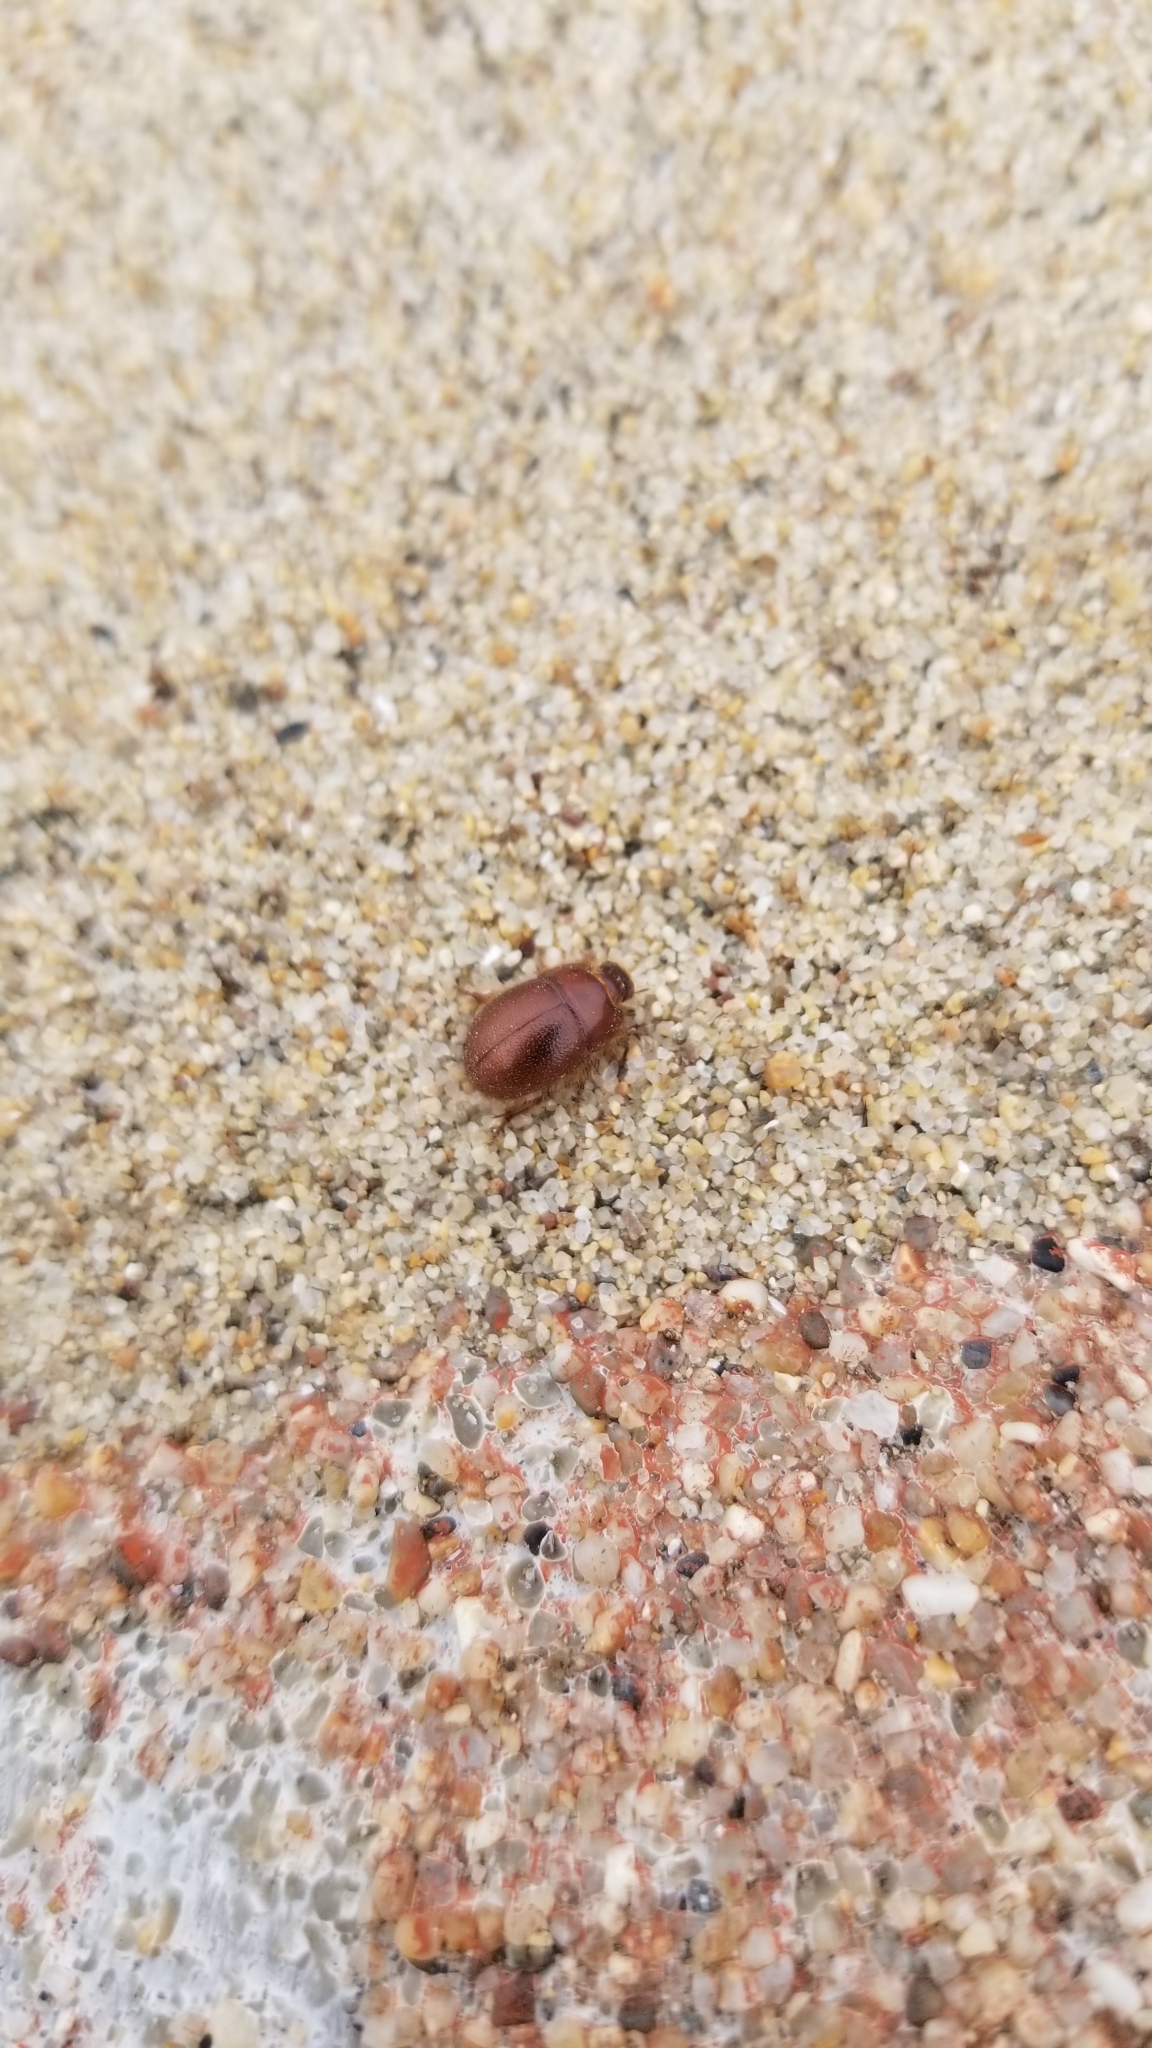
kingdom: Animalia
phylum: Arthropoda
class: Insecta
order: Coleoptera
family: Tenebrionidae
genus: Coelus
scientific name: Coelus ciliatus
